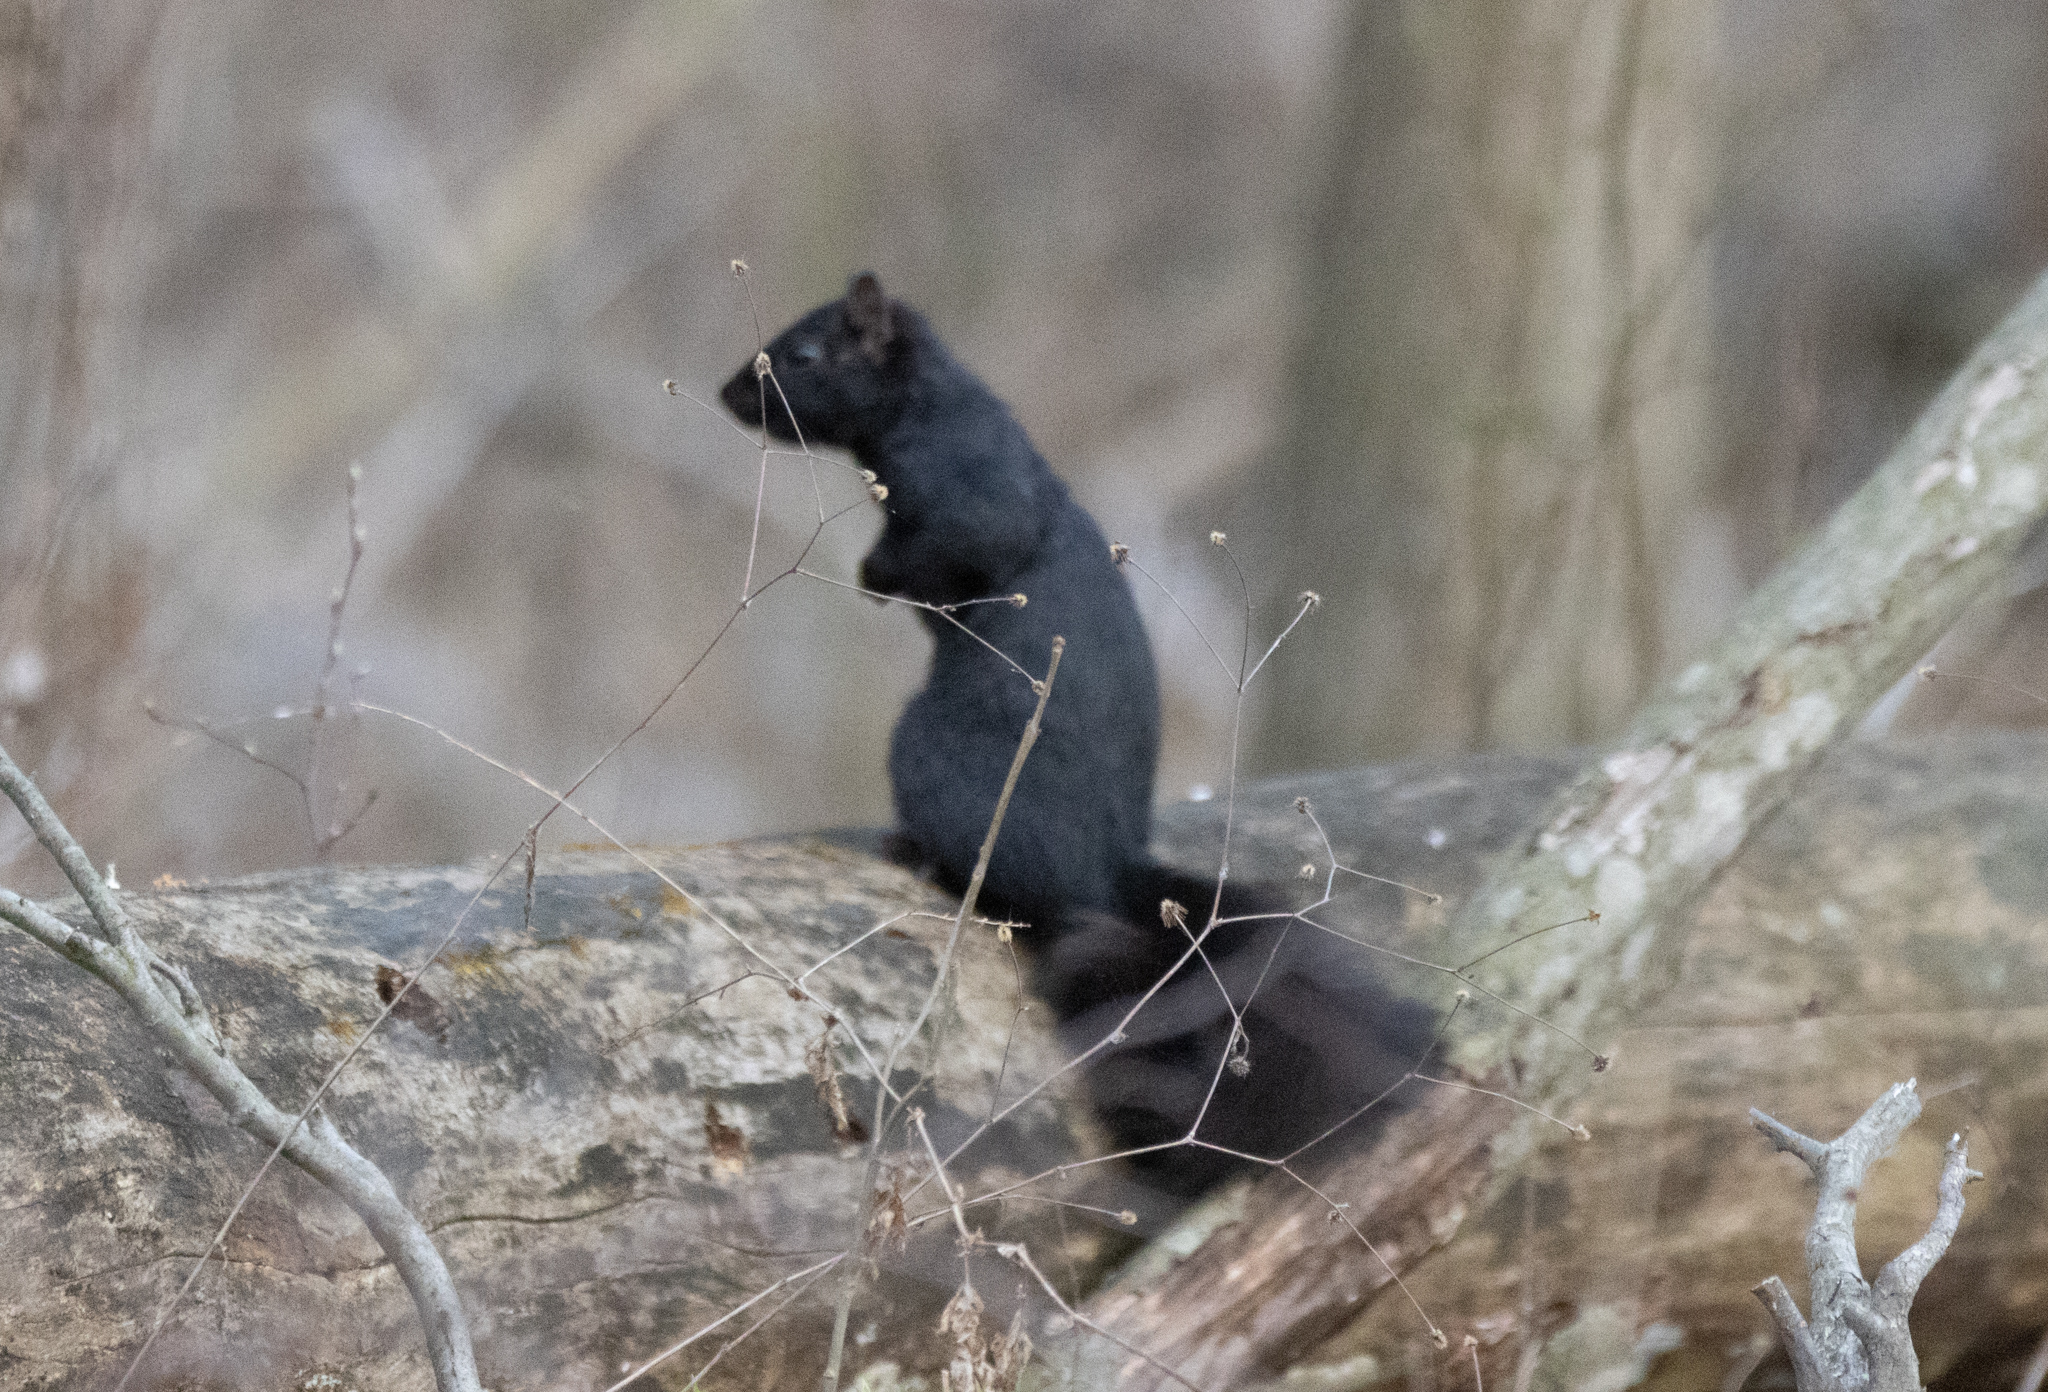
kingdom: Animalia
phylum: Chordata
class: Mammalia
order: Rodentia
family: Sciuridae
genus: Sciurus
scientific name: Sciurus carolinensis
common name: Eastern gray squirrel
